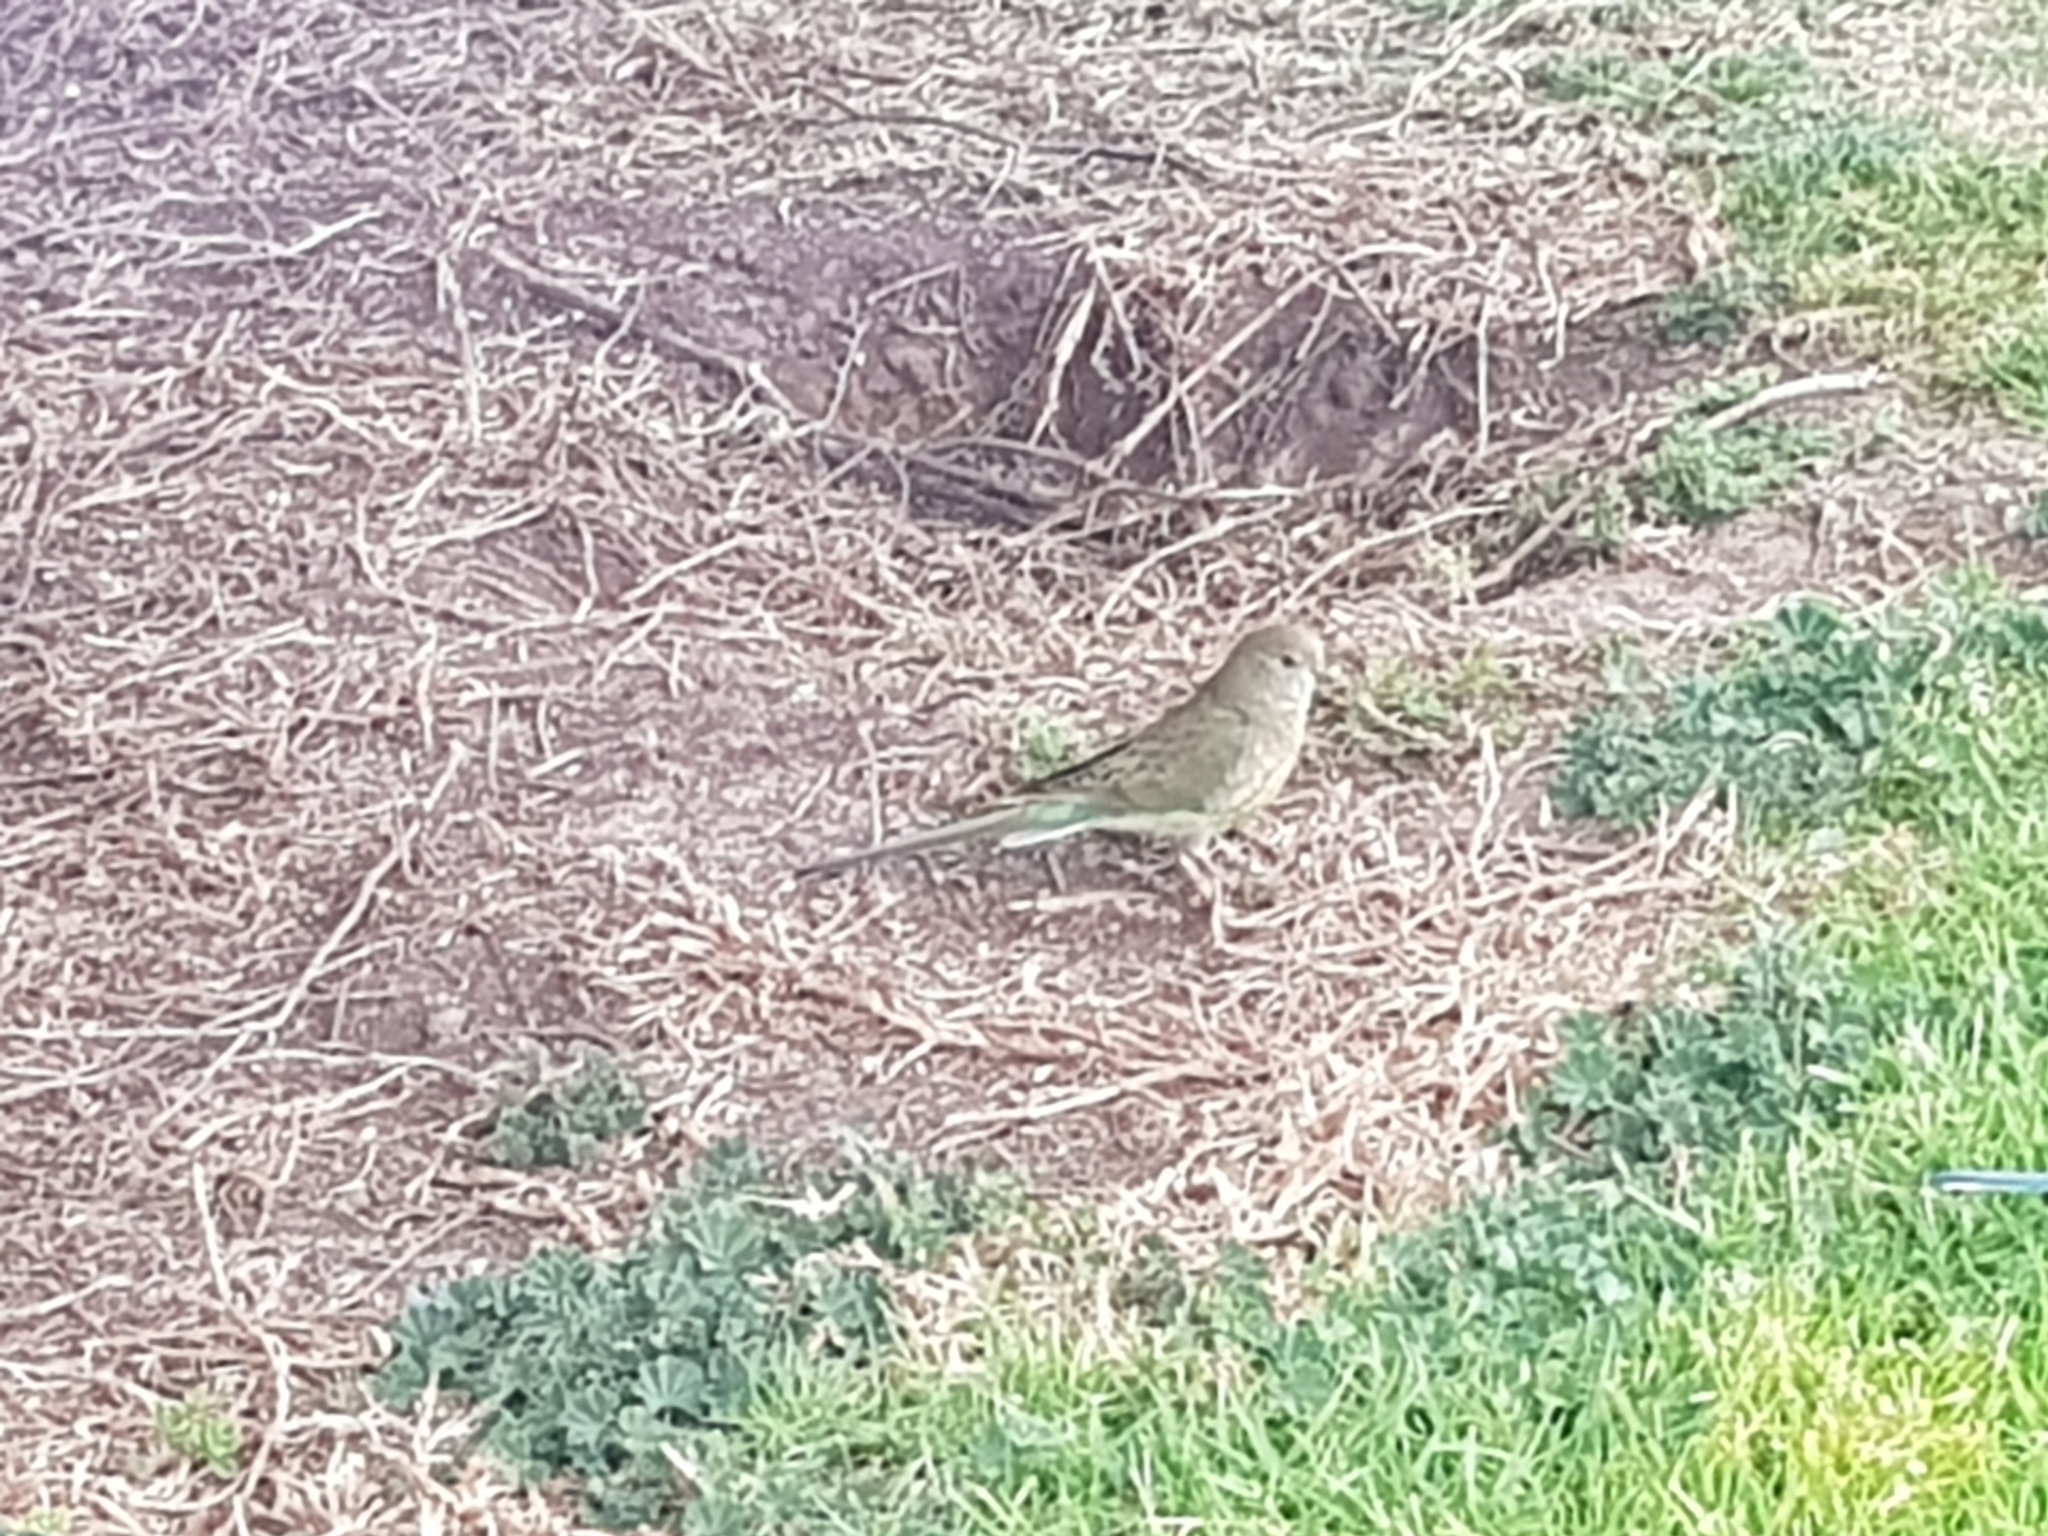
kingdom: Animalia
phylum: Chordata
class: Aves
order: Psittaciformes
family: Psittacidae
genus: Psephotus
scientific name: Psephotus haematonotus
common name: Red-rumped parrot
